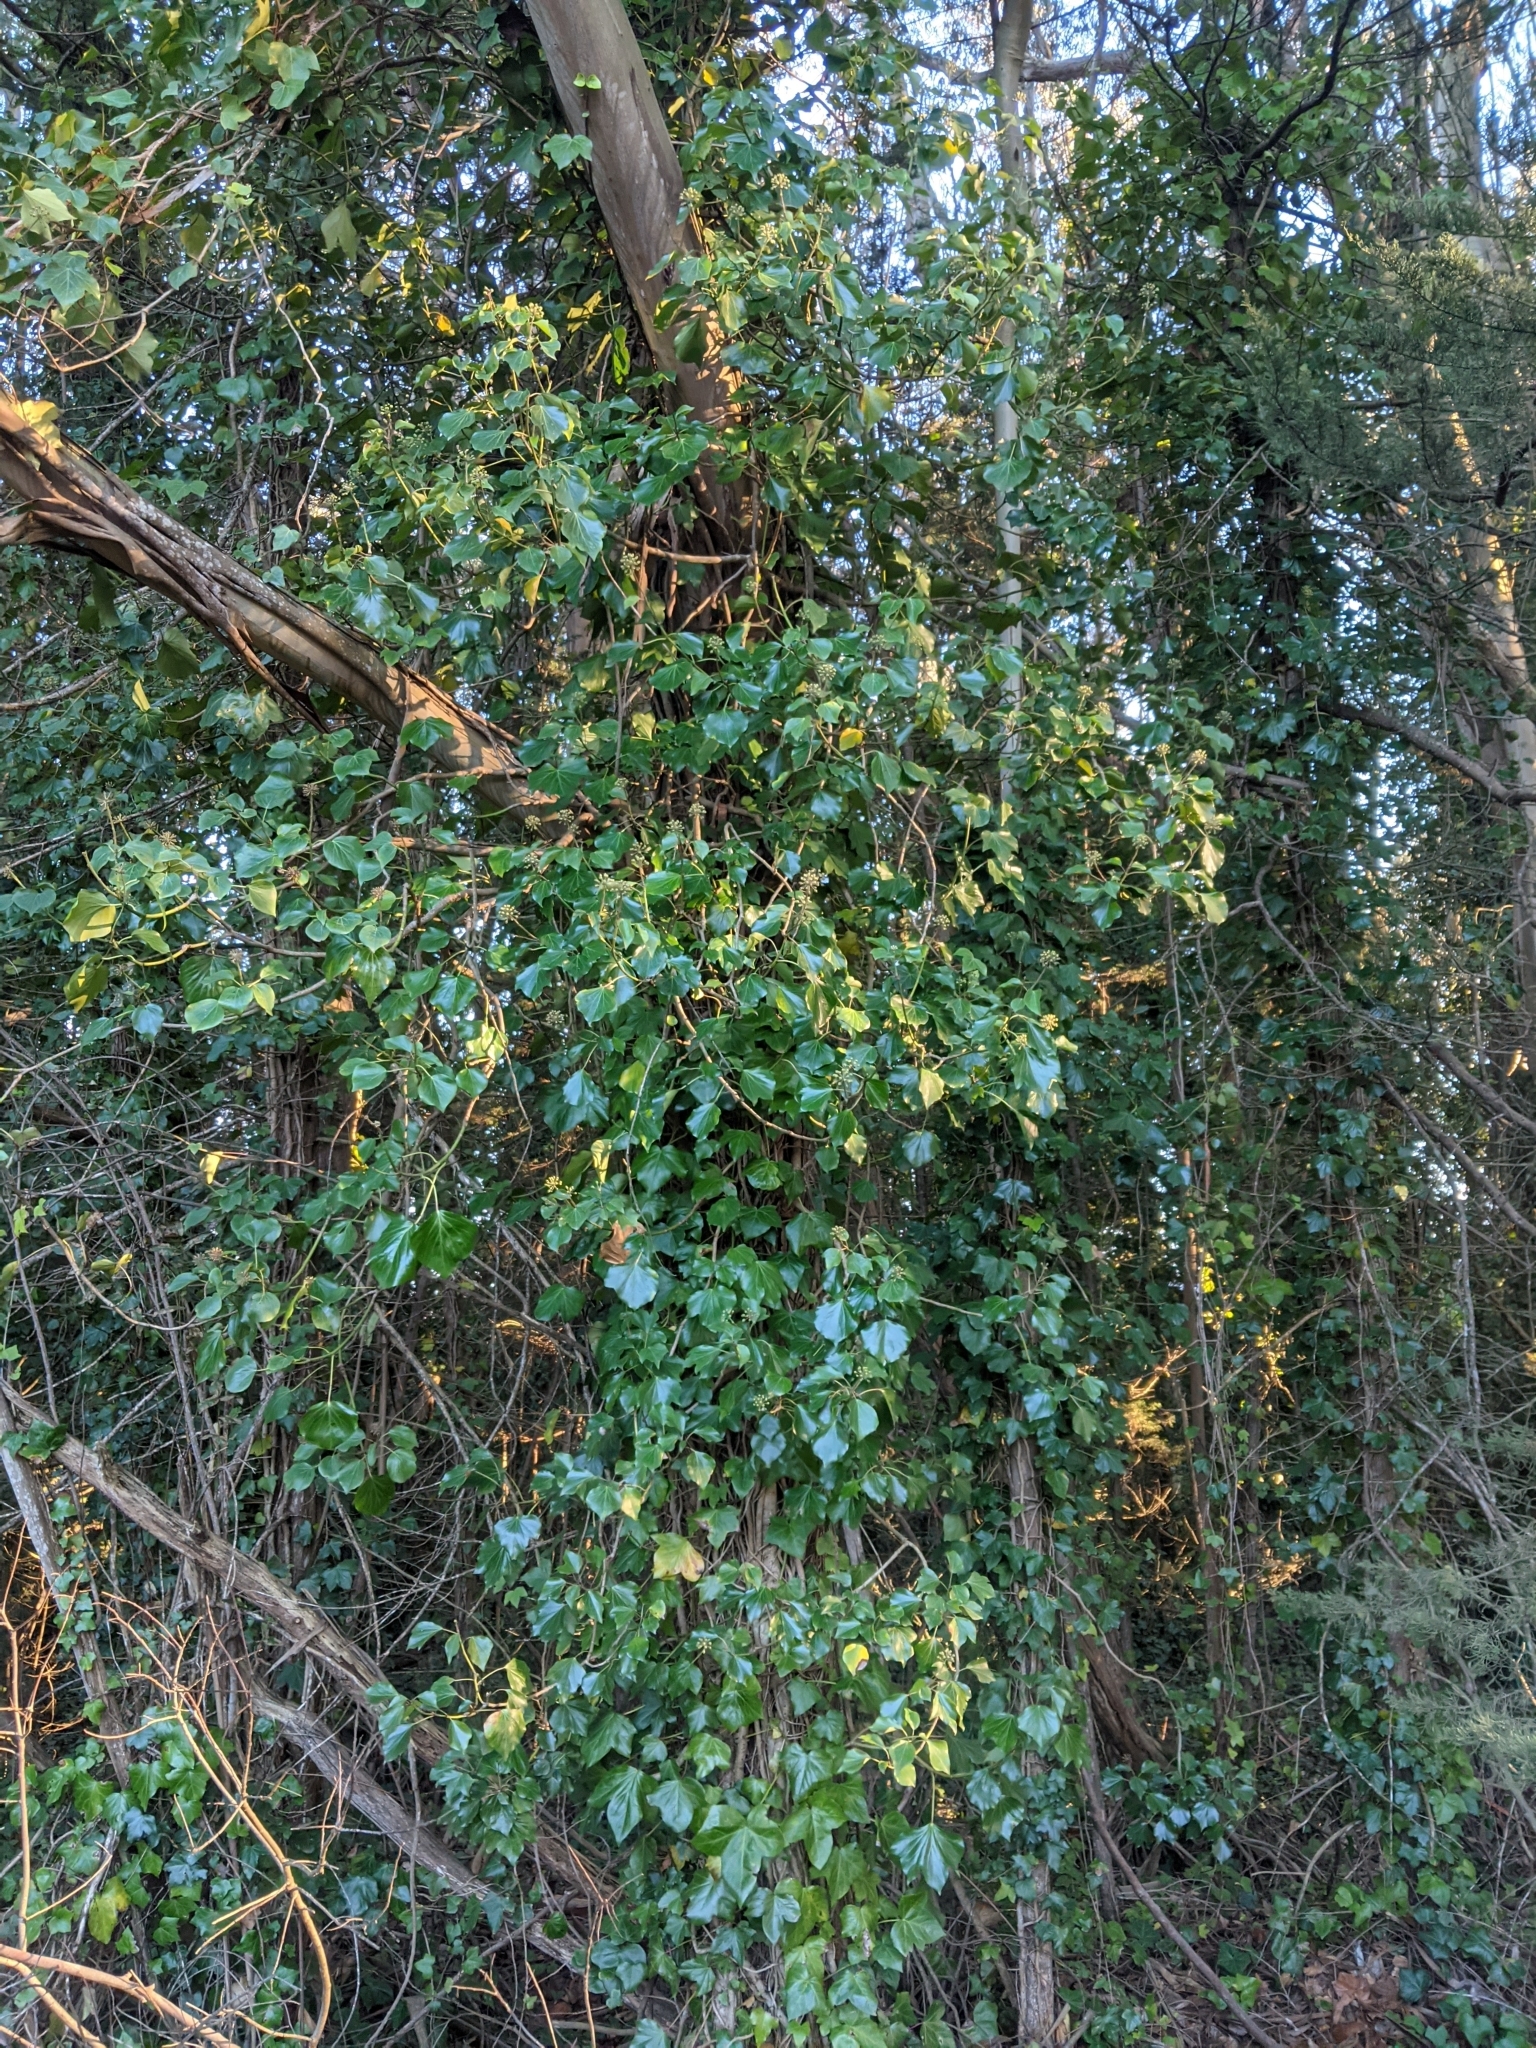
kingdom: Plantae
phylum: Tracheophyta
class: Magnoliopsida
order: Apiales
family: Araliaceae
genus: Hedera
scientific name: Hedera helix
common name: Ivy
